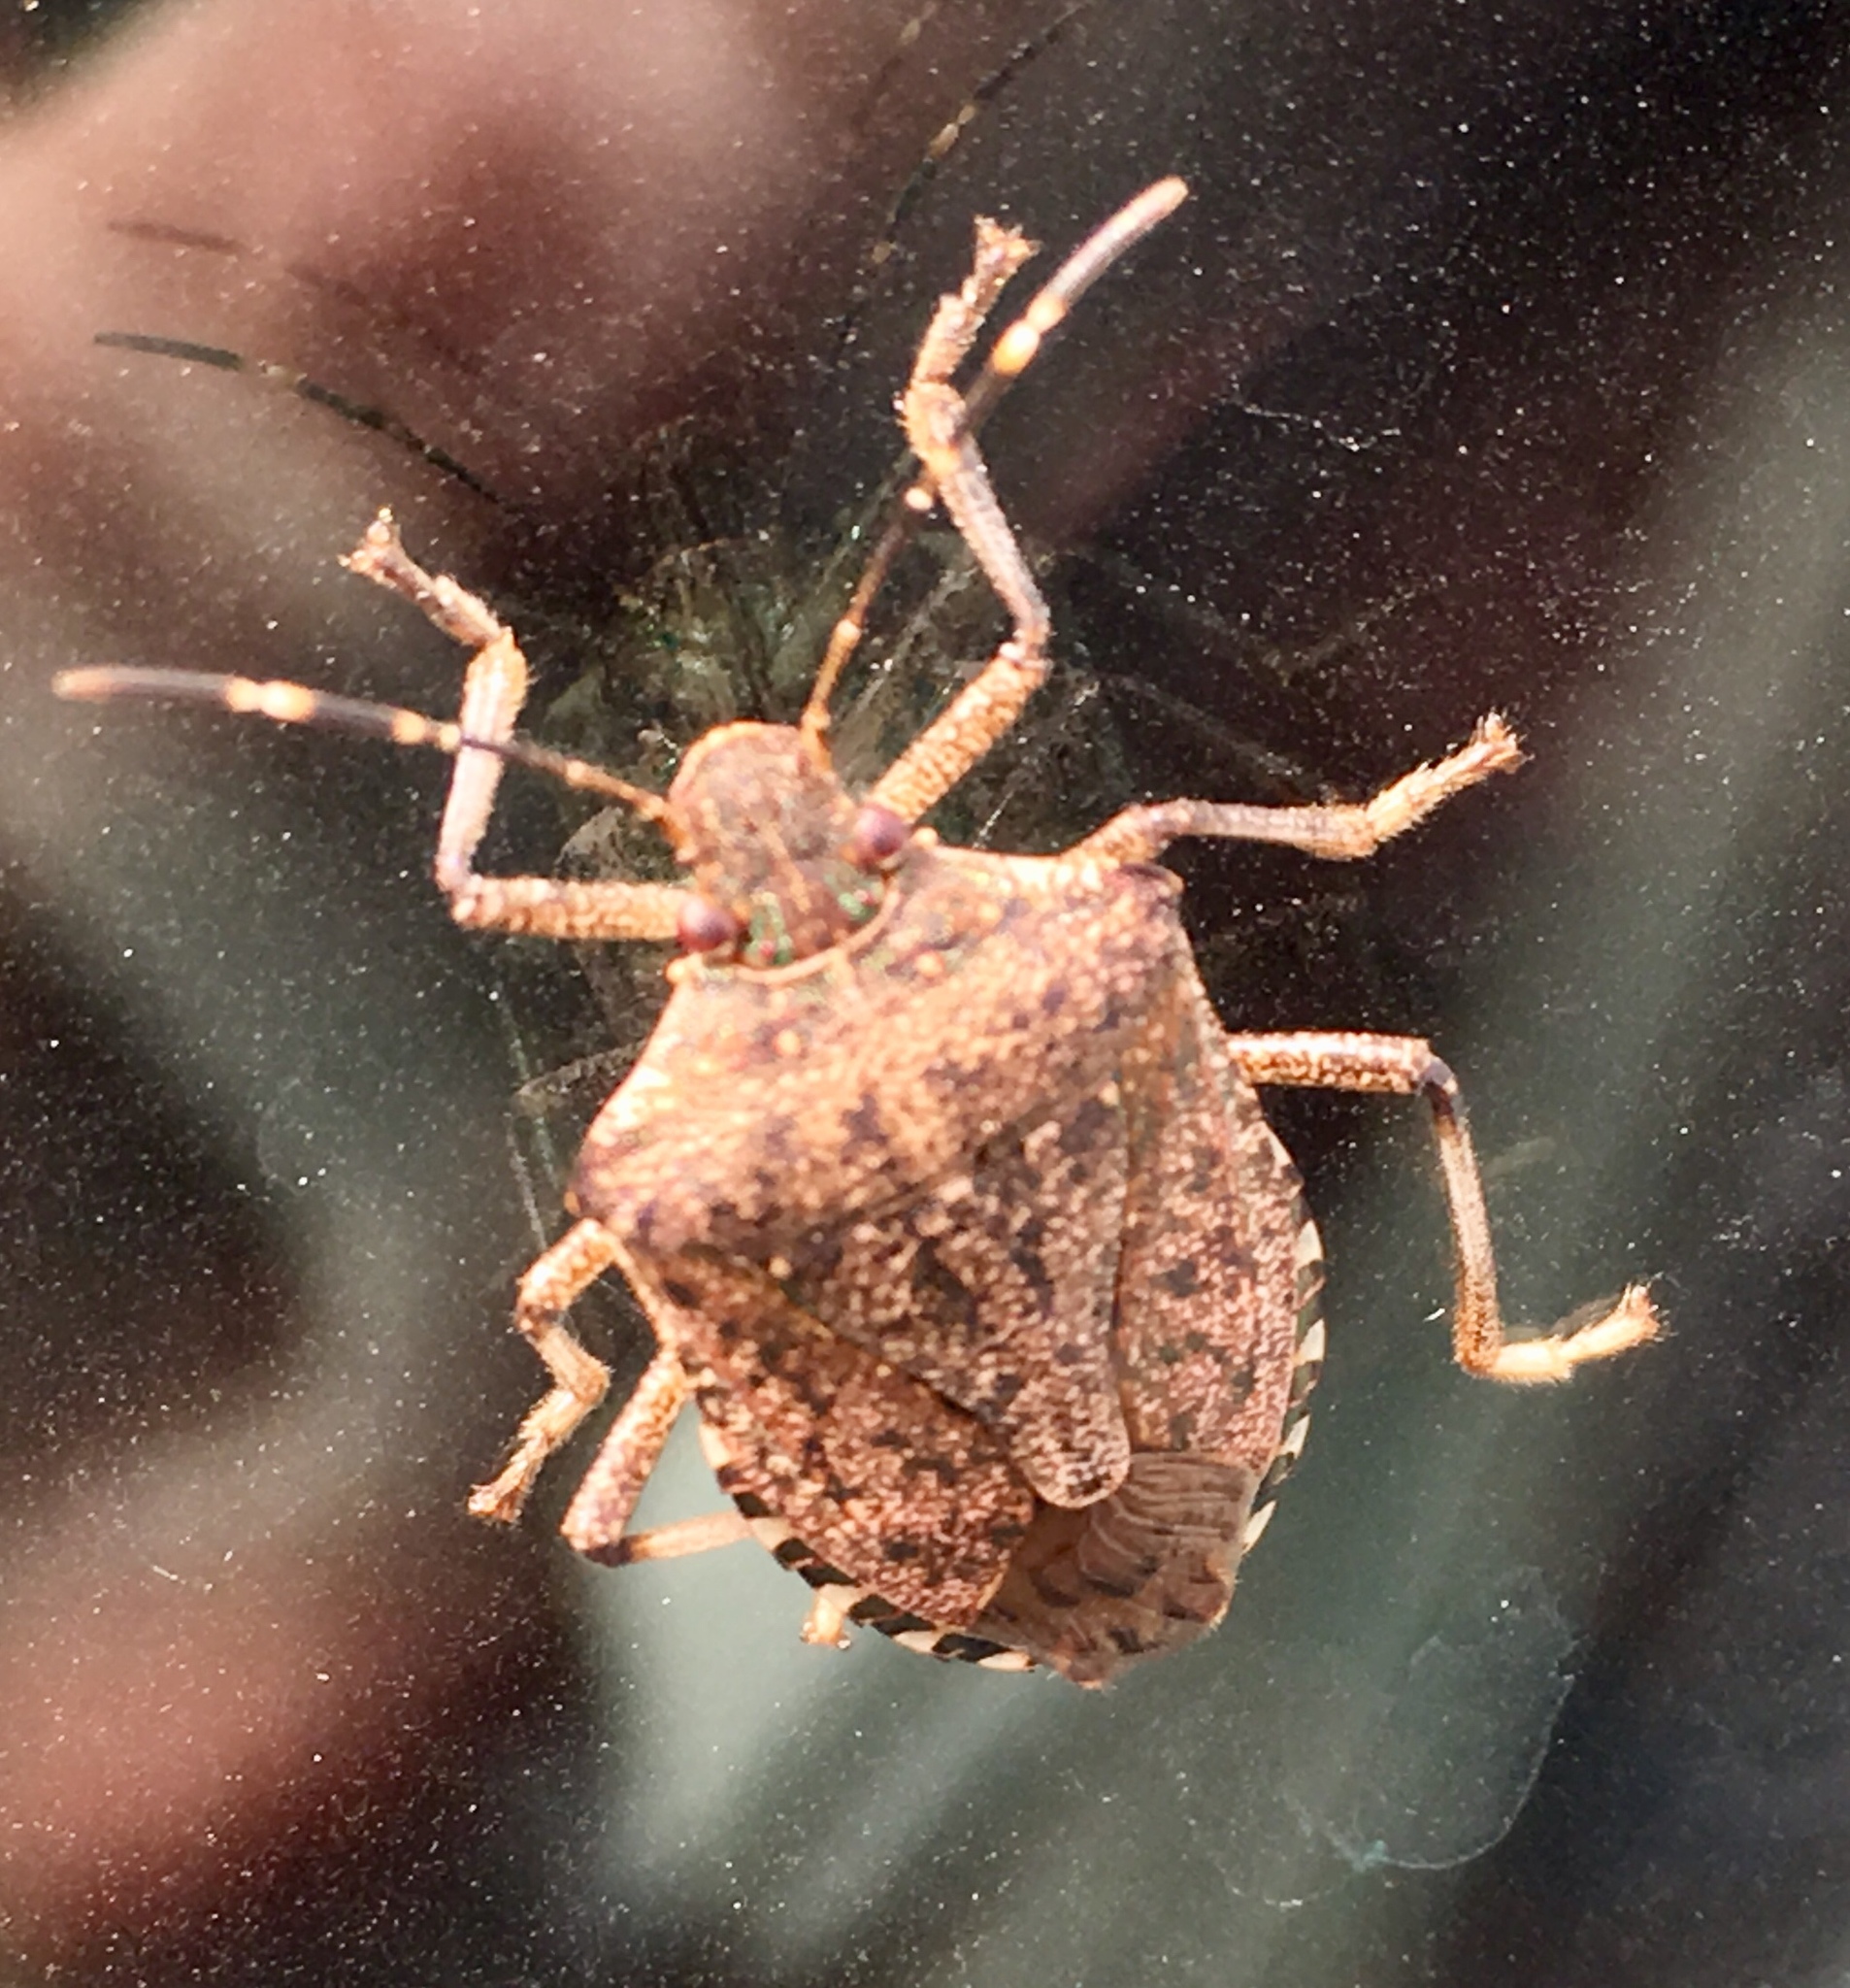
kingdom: Animalia
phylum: Arthropoda
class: Insecta
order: Hemiptera
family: Pentatomidae
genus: Halyomorpha
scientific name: Halyomorpha halys
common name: Brown marmorated stink bug
